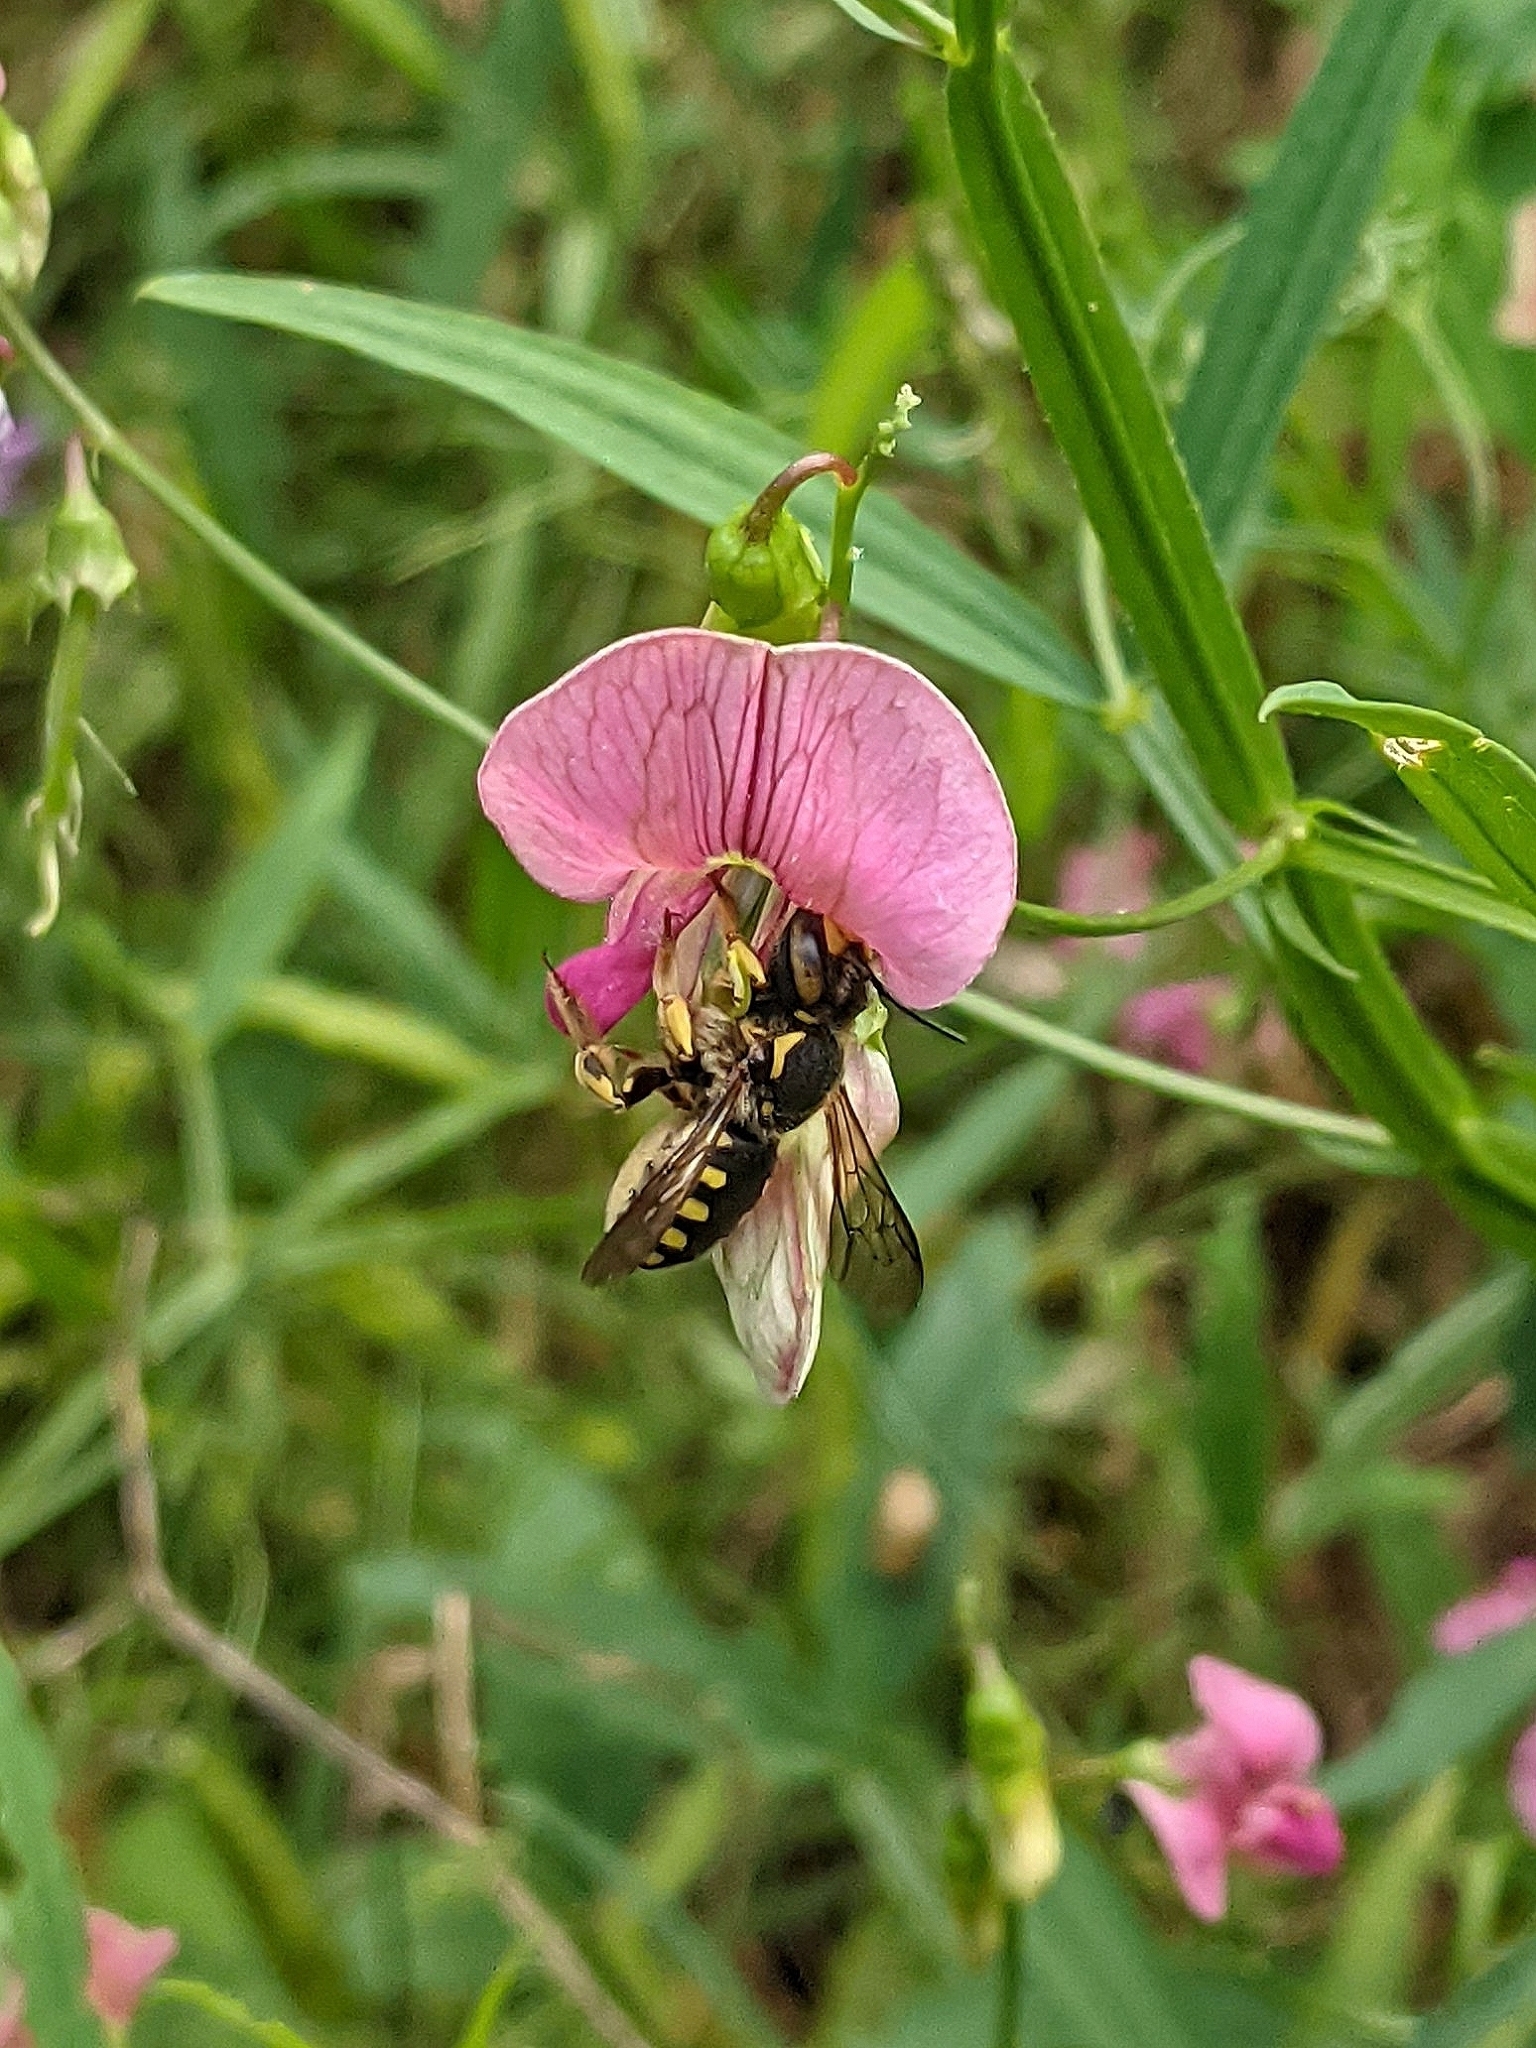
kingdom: Animalia
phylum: Arthropoda
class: Insecta
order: Hymenoptera
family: Megachilidae
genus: Anthidium
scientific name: Anthidium florentinum
